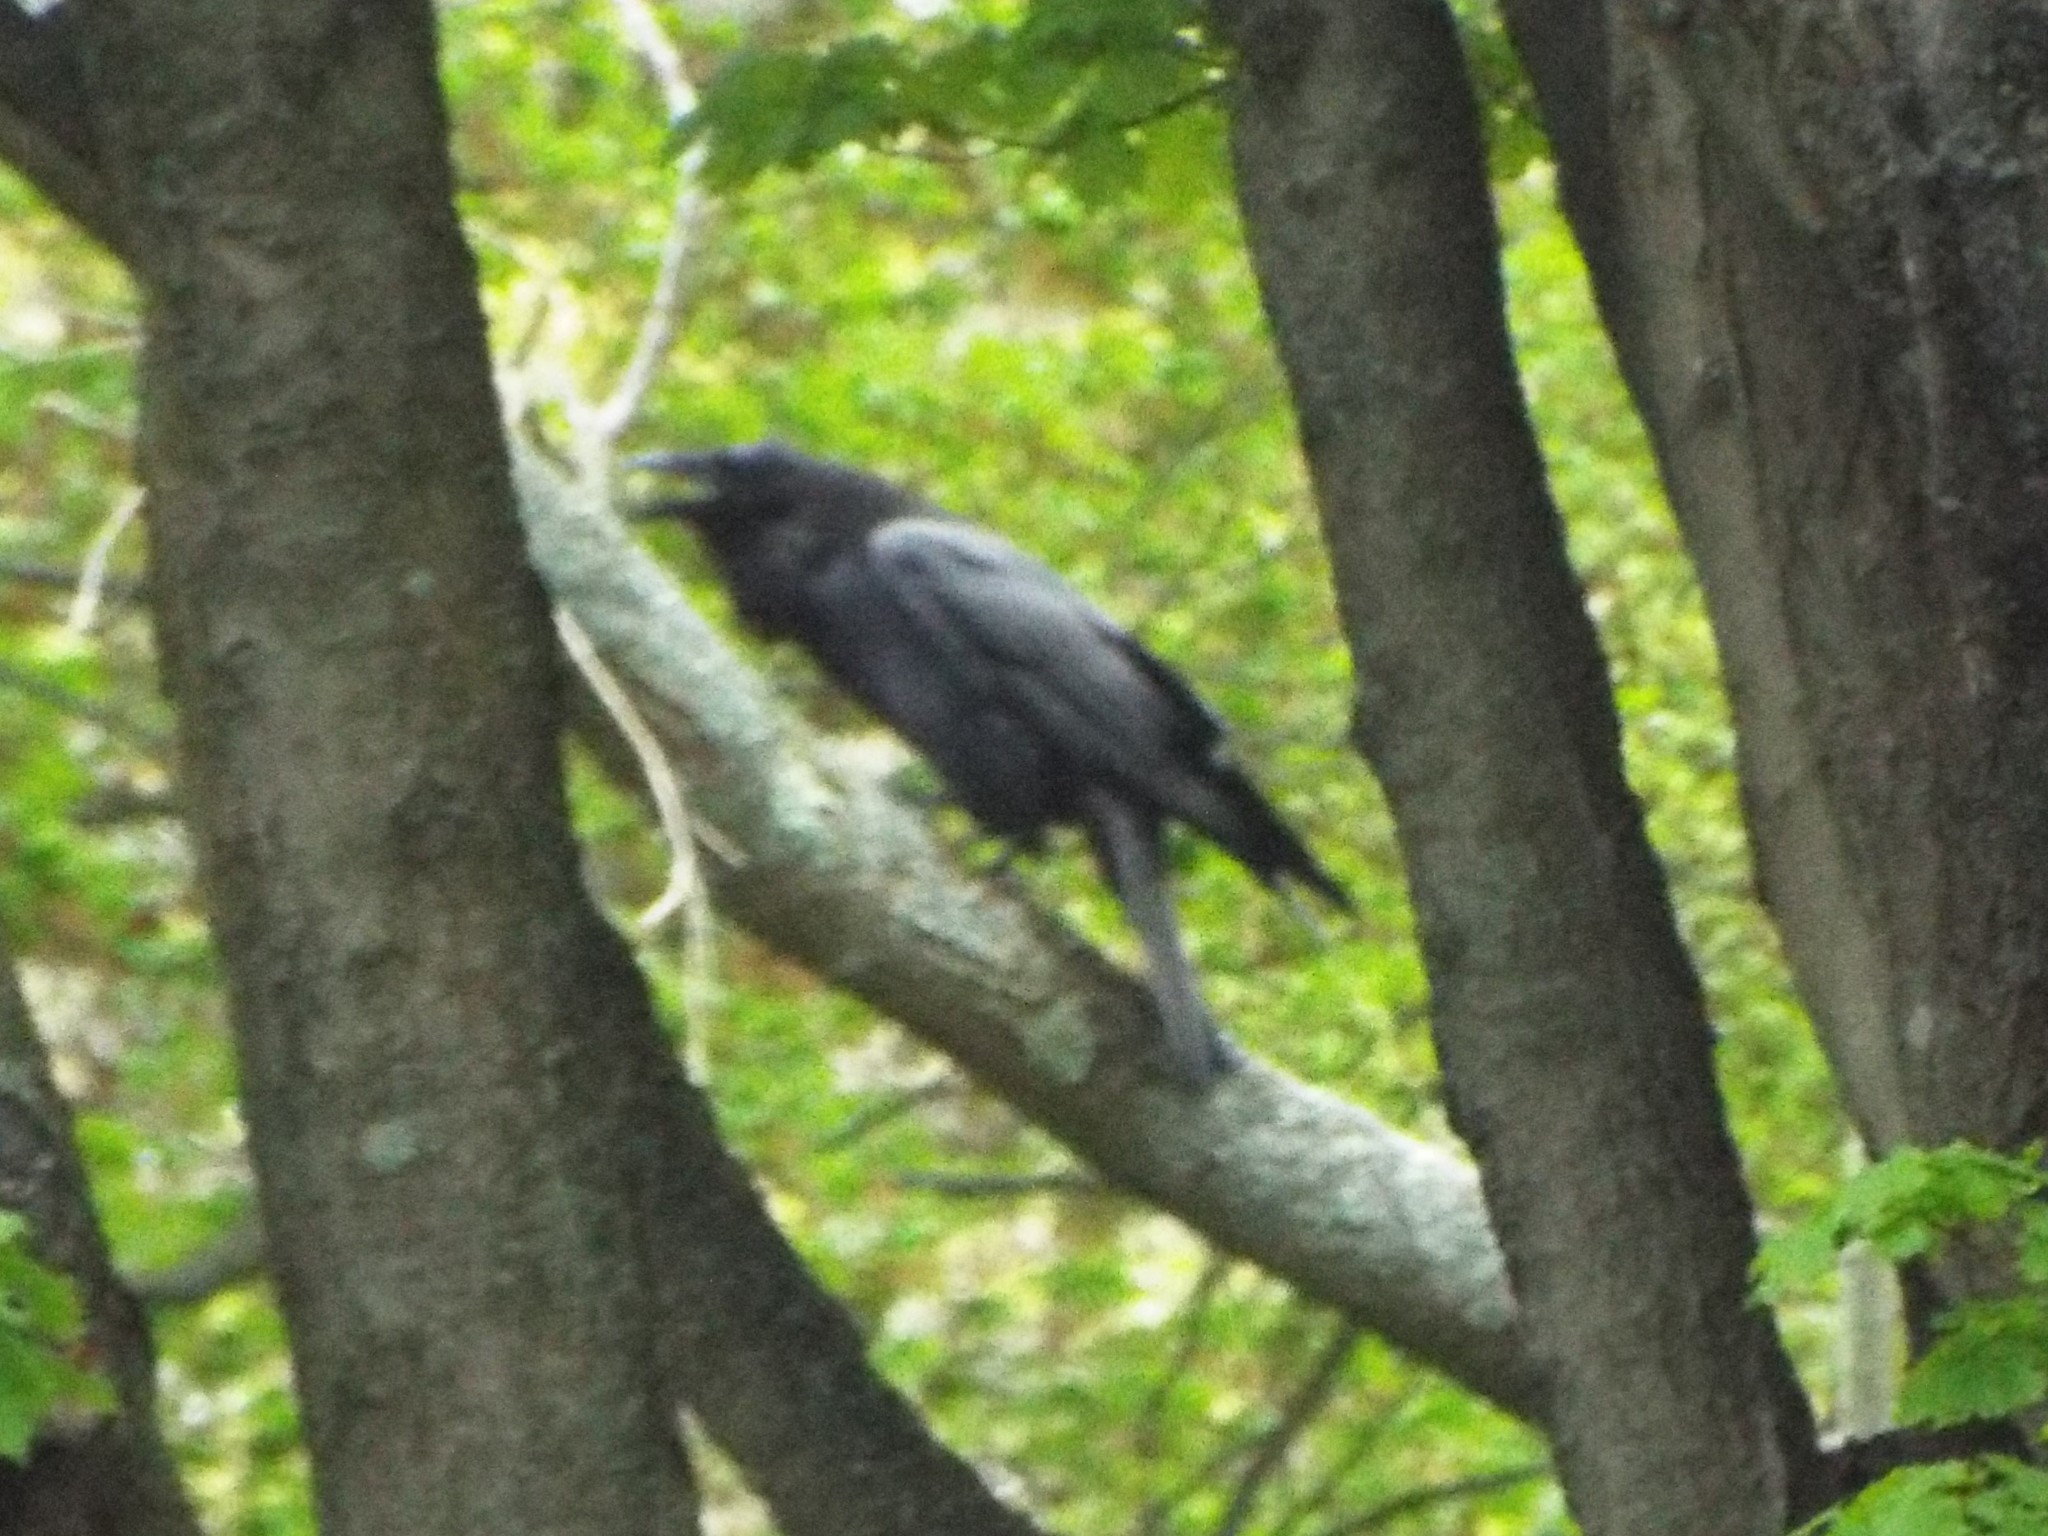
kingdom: Animalia
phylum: Chordata
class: Aves
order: Passeriformes
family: Corvidae
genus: Corvus
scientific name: Corvus corax
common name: Common raven
